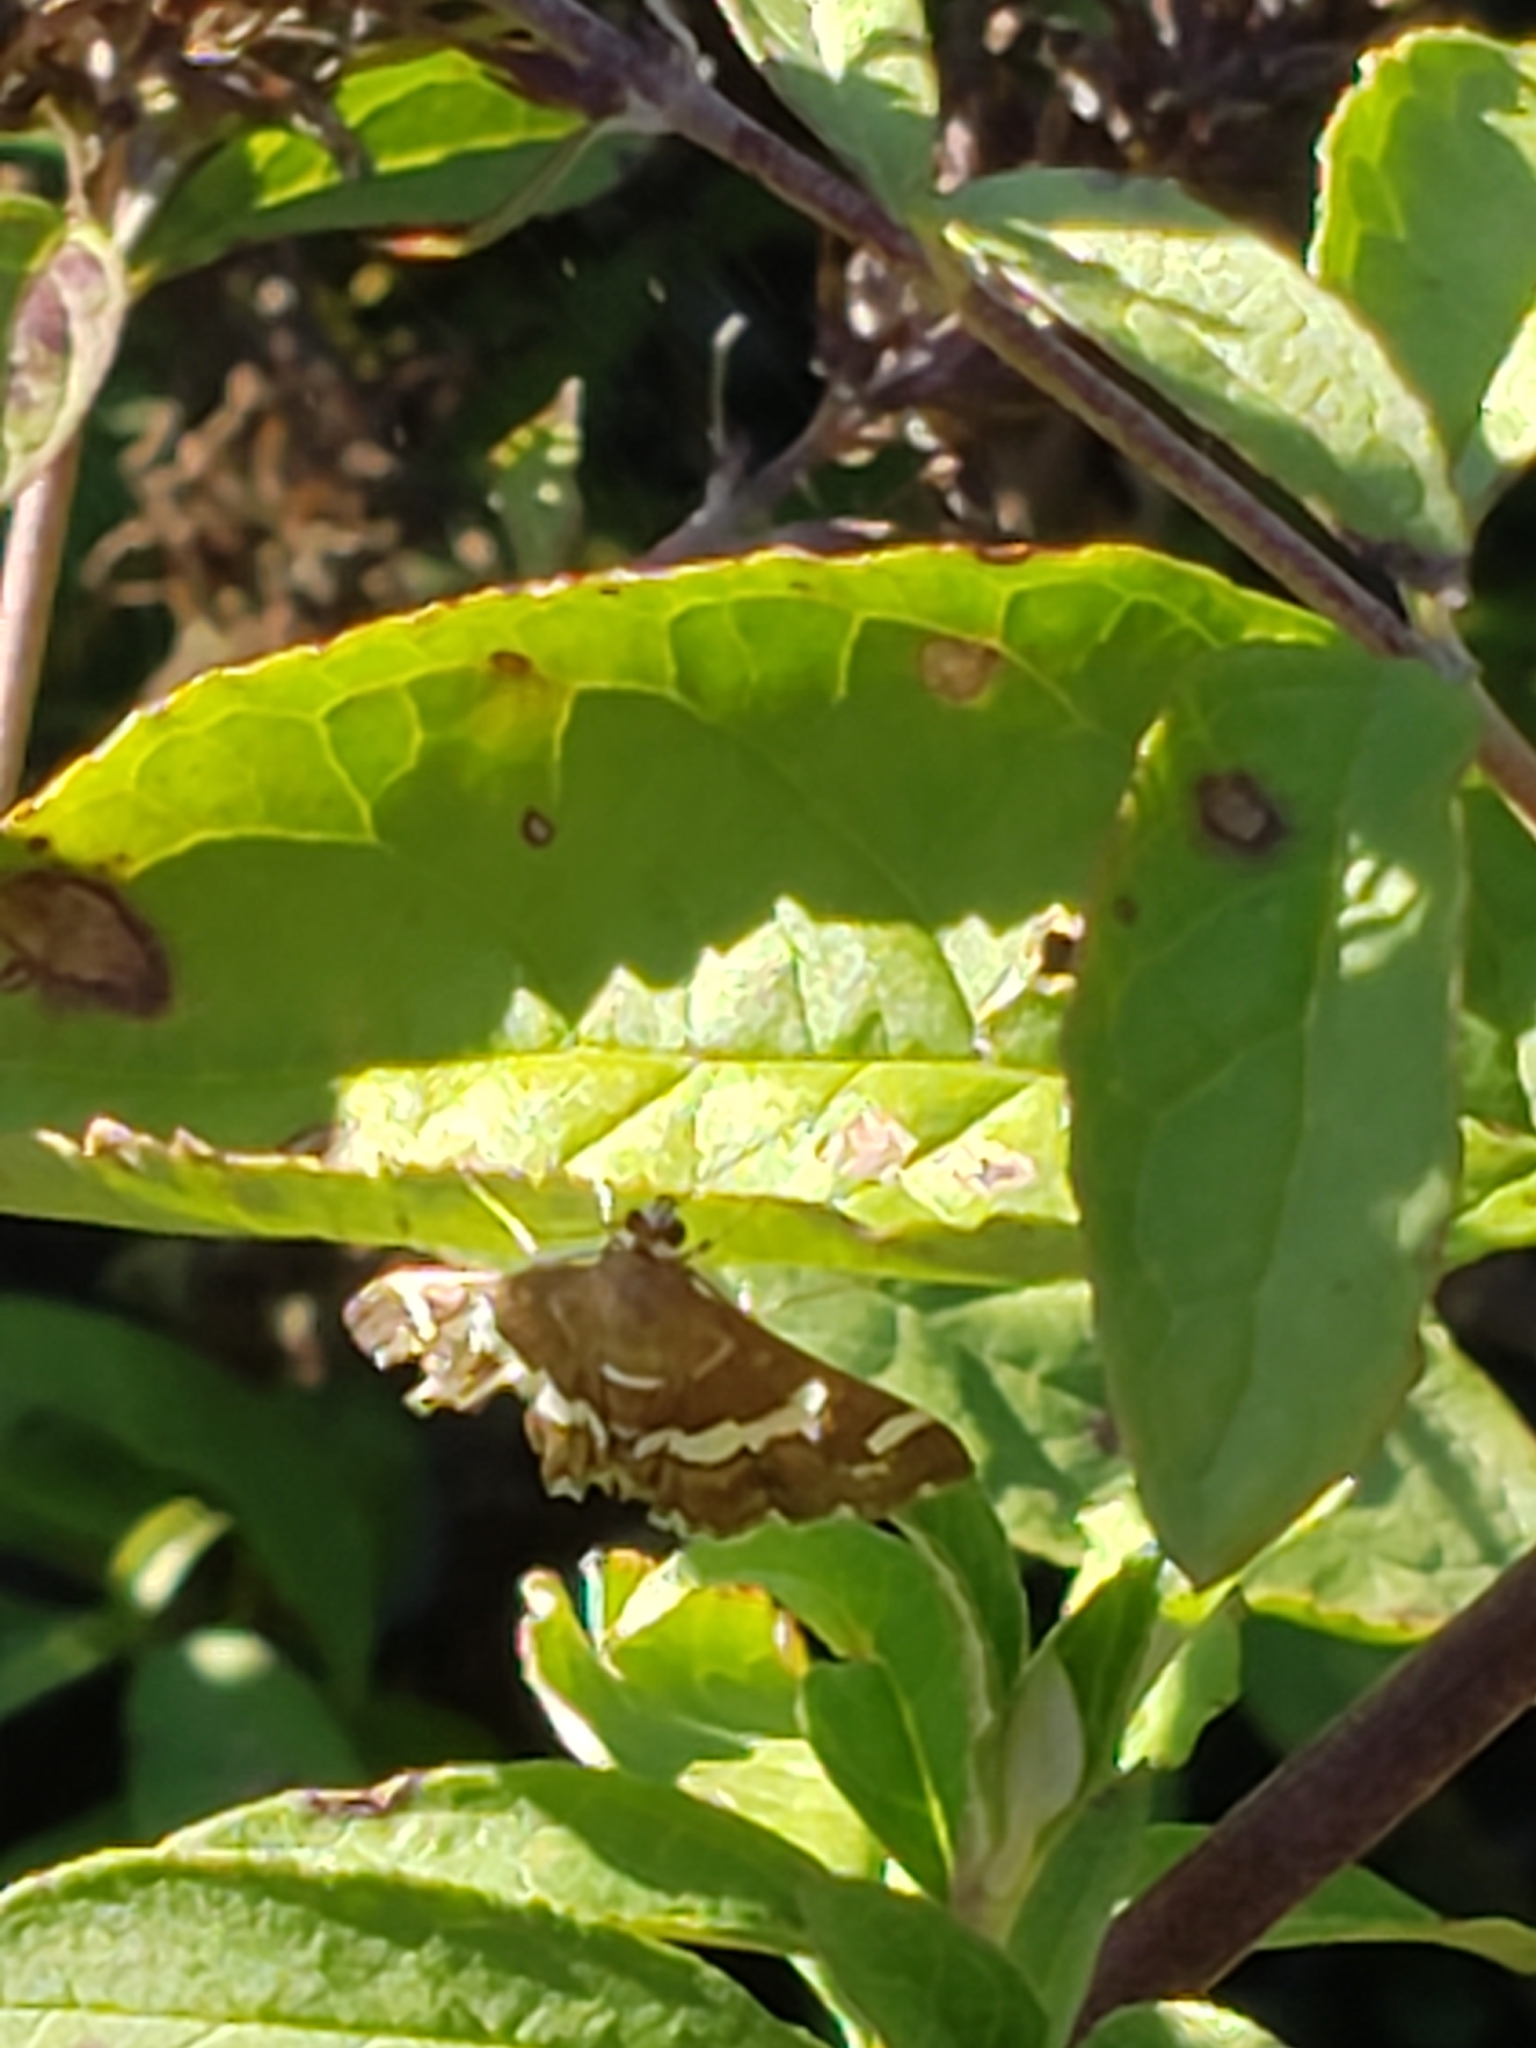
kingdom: Animalia
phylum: Arthropoda
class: Insecta
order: Lepidoptera
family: Crambidae
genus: Spoladea
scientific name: Spoladea recurvalis
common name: Beet webworm moth
